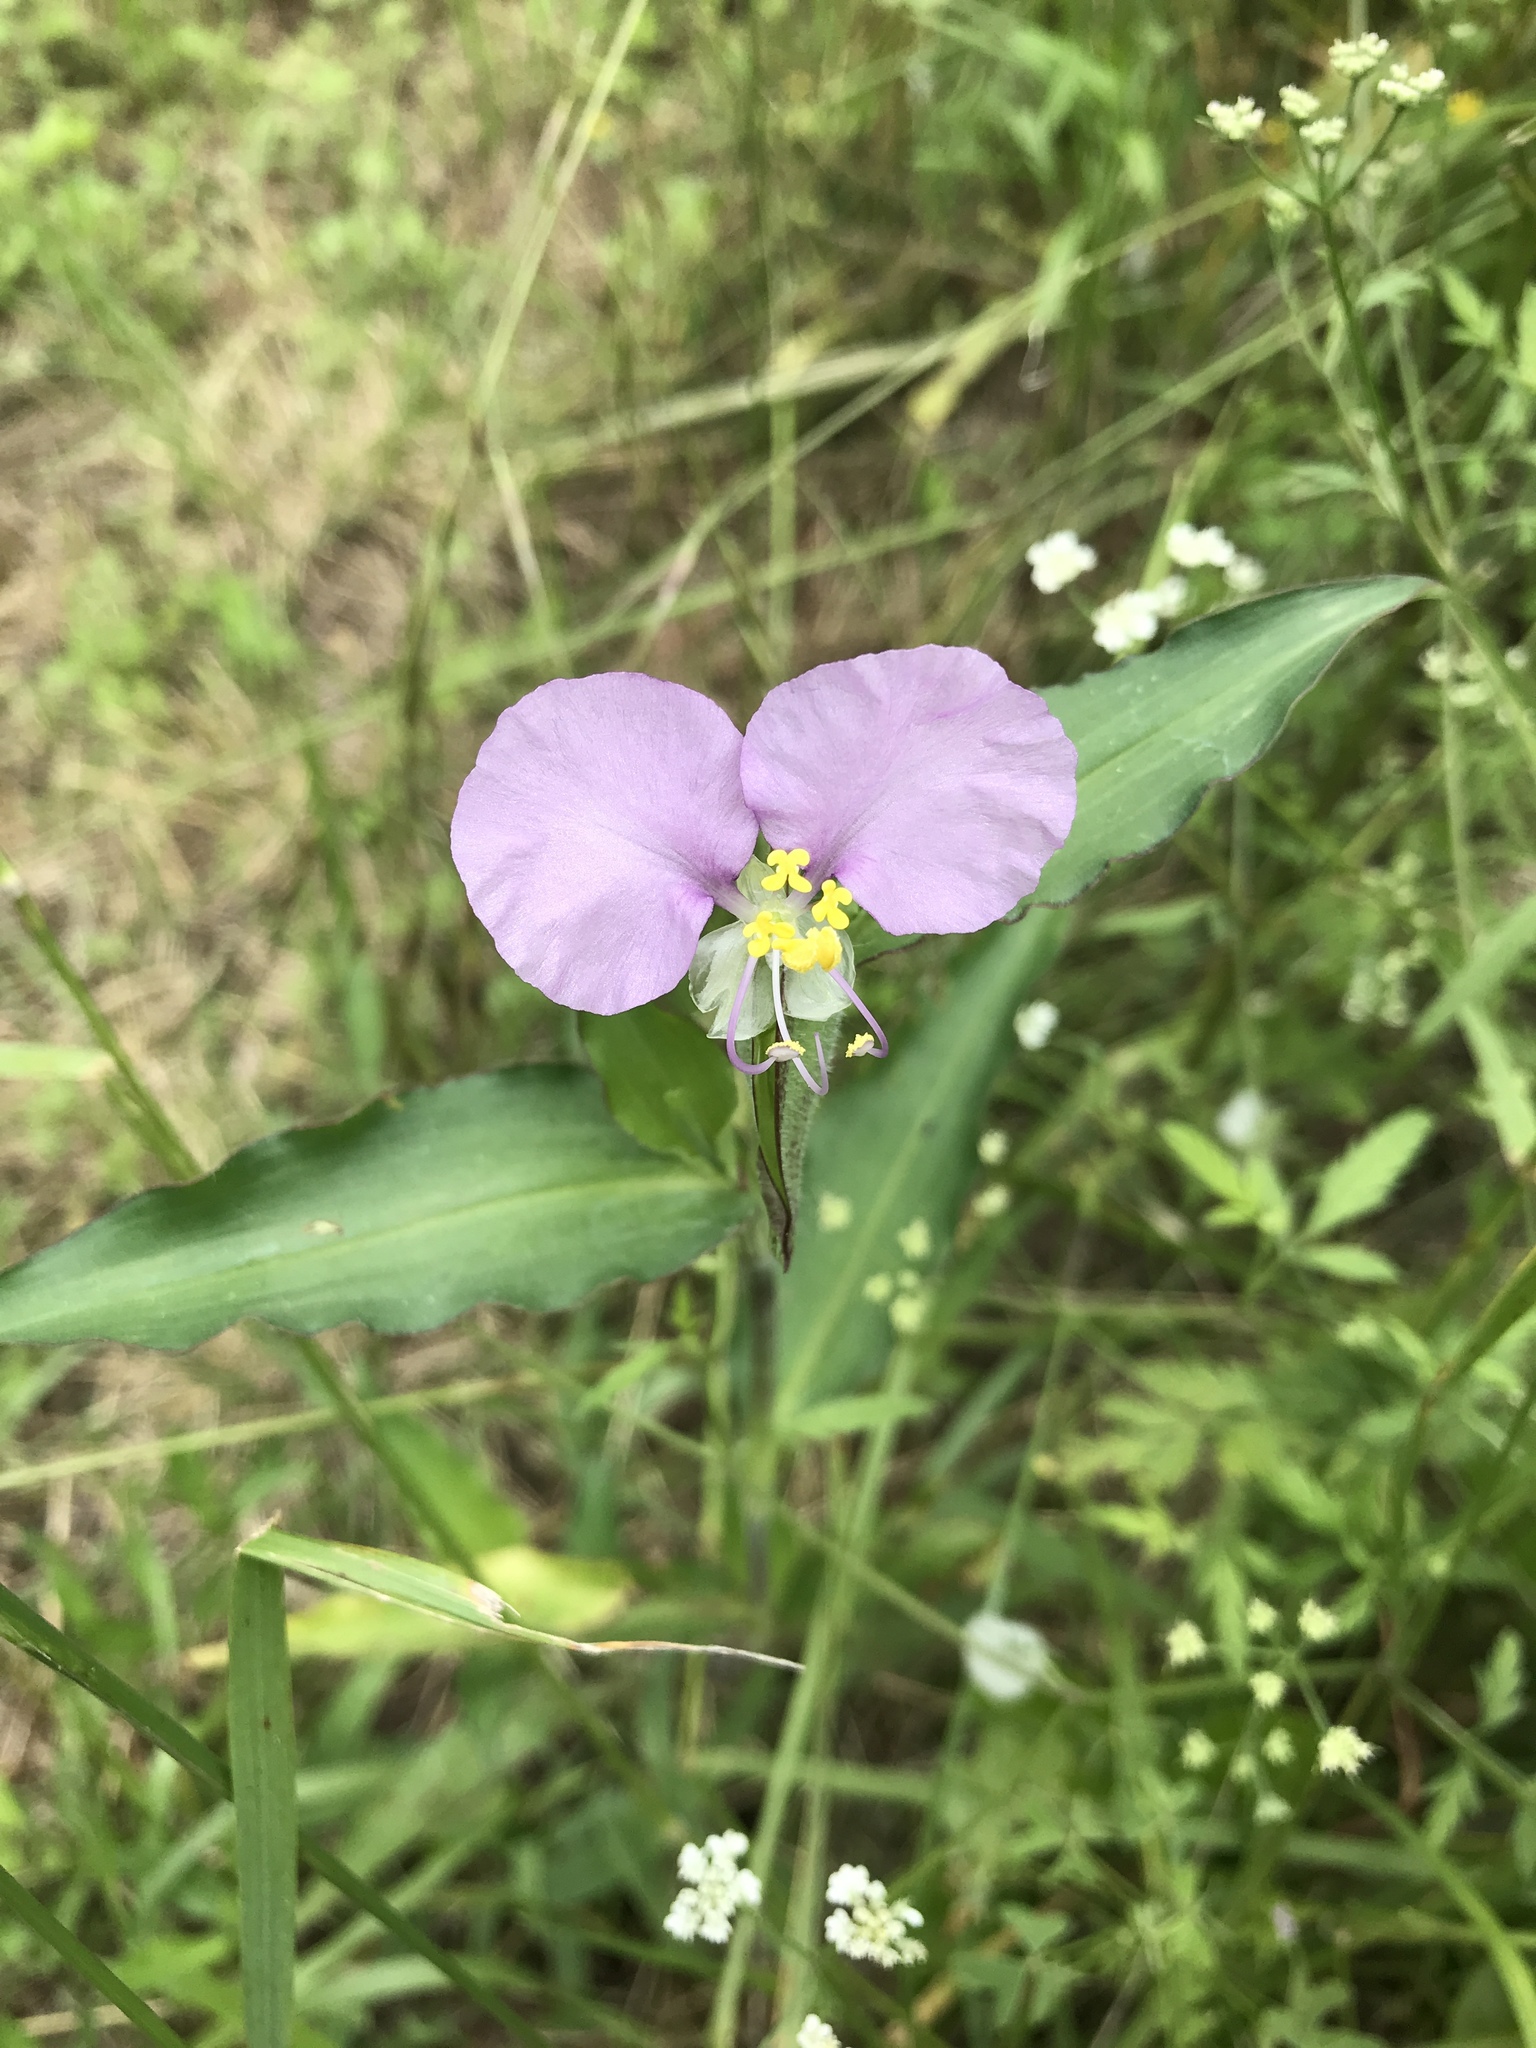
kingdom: Plantae
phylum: Tracheophyta
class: Liliopsida
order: Commelinales
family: Commelinaceae
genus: Commelina
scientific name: Commelina erecta
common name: Blousel blommetjie
